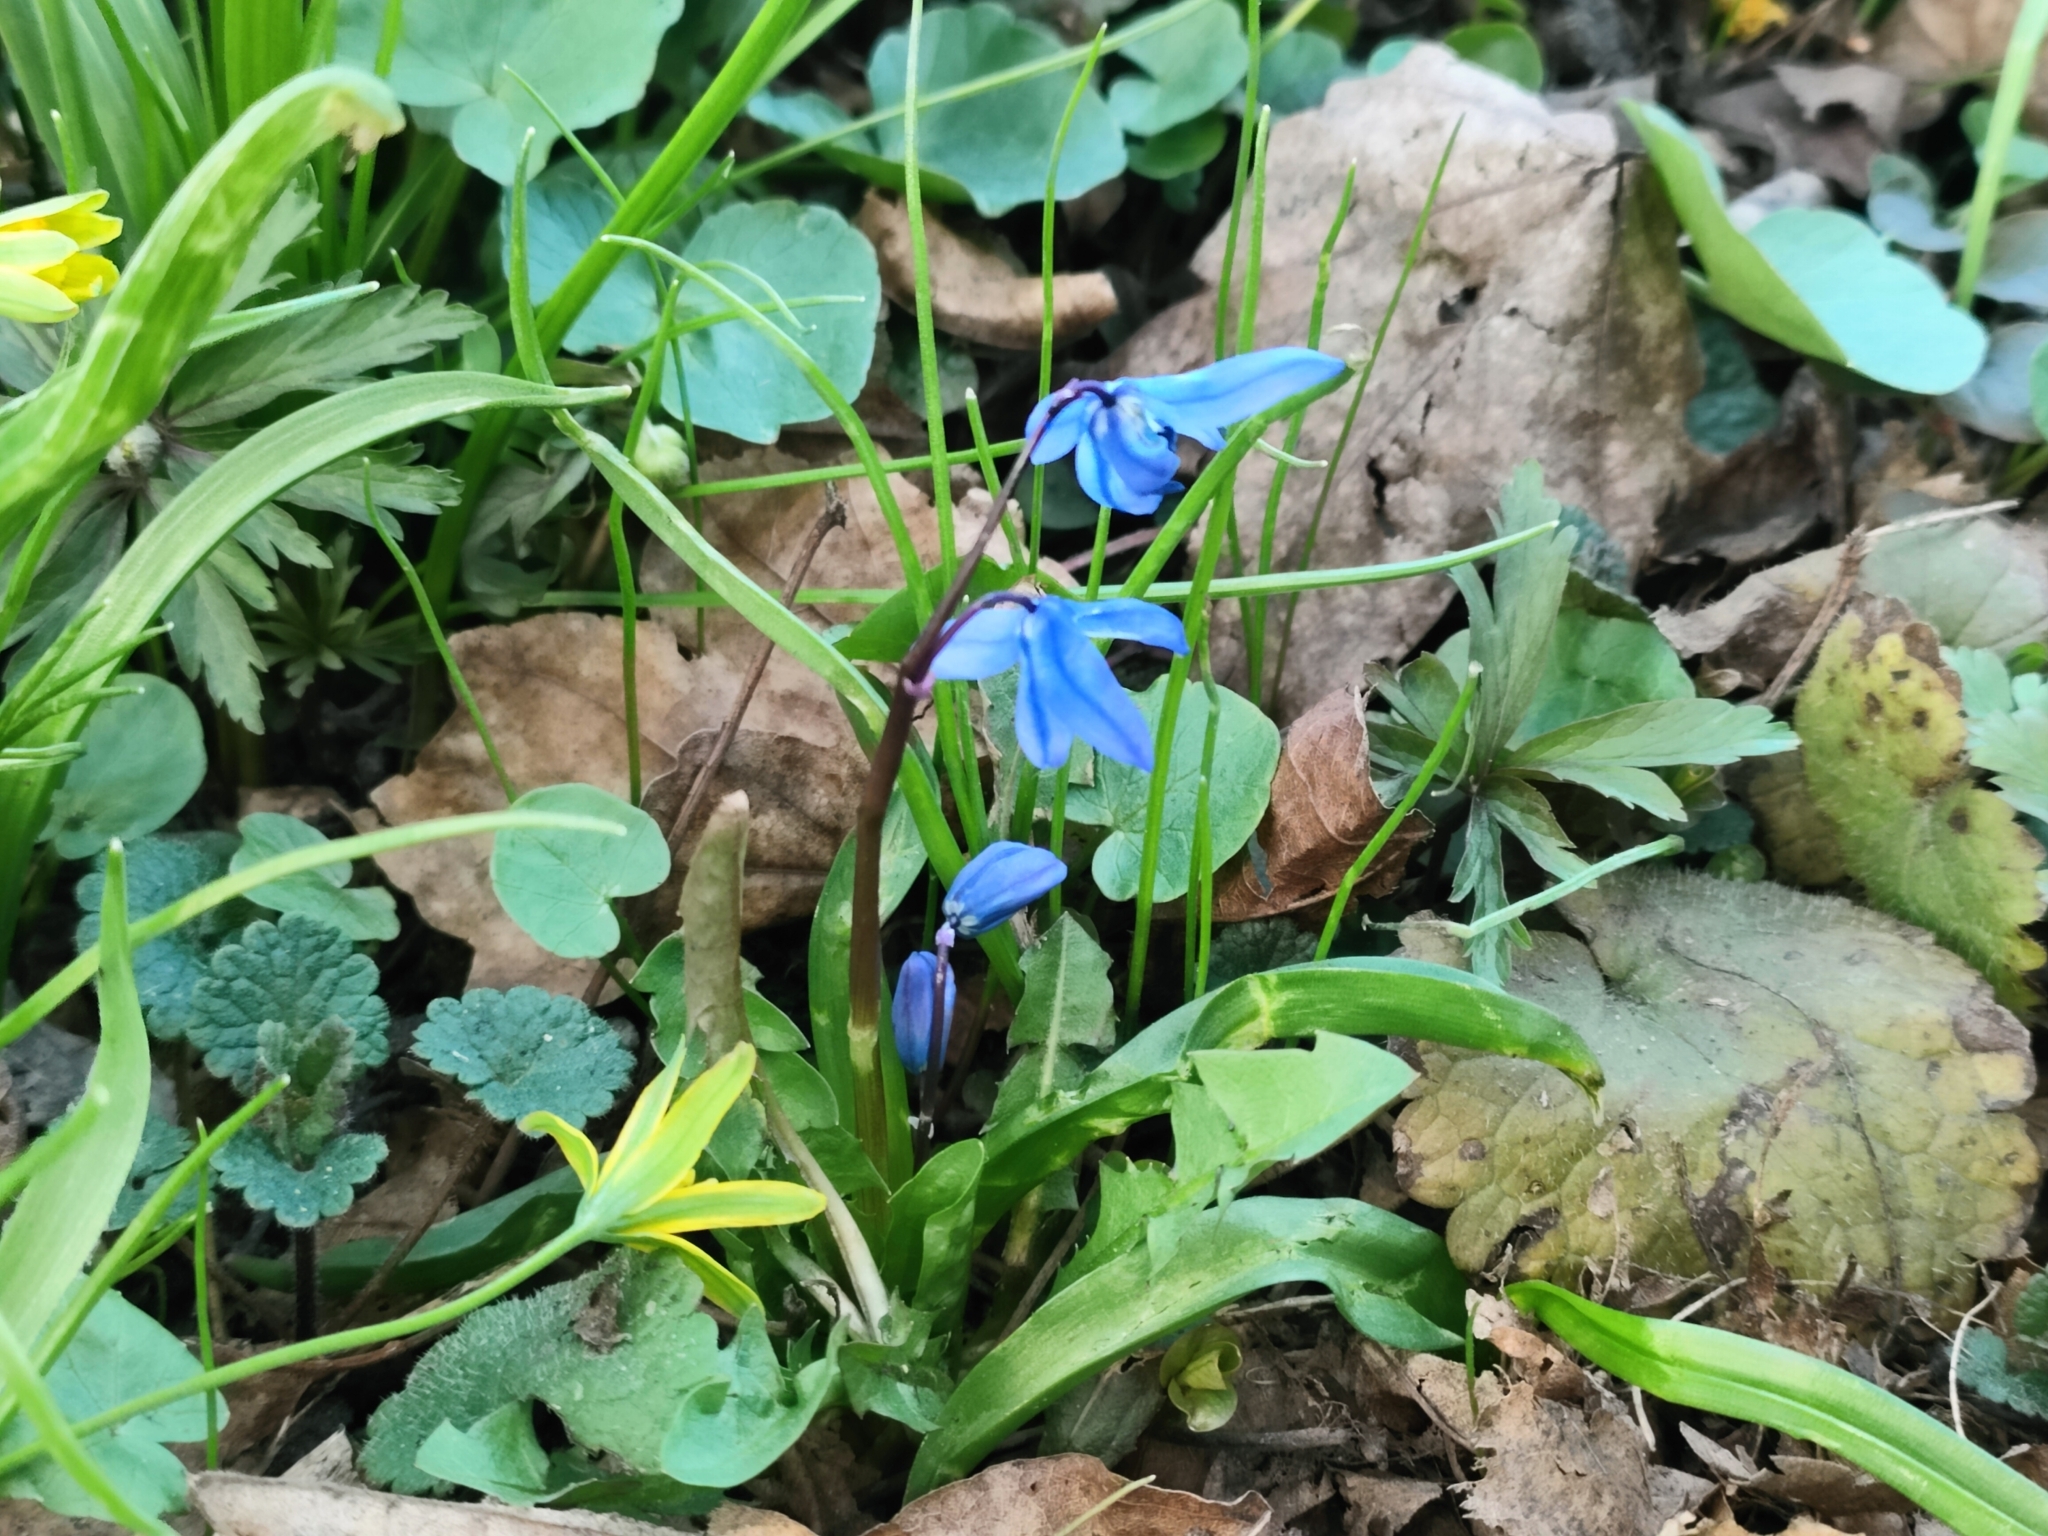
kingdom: Plantae
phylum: Tracheophyta
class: Liliopsida
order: Asparagales
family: Asparagaceae
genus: Scilla
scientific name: Scilla siberica
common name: Siberian squill
